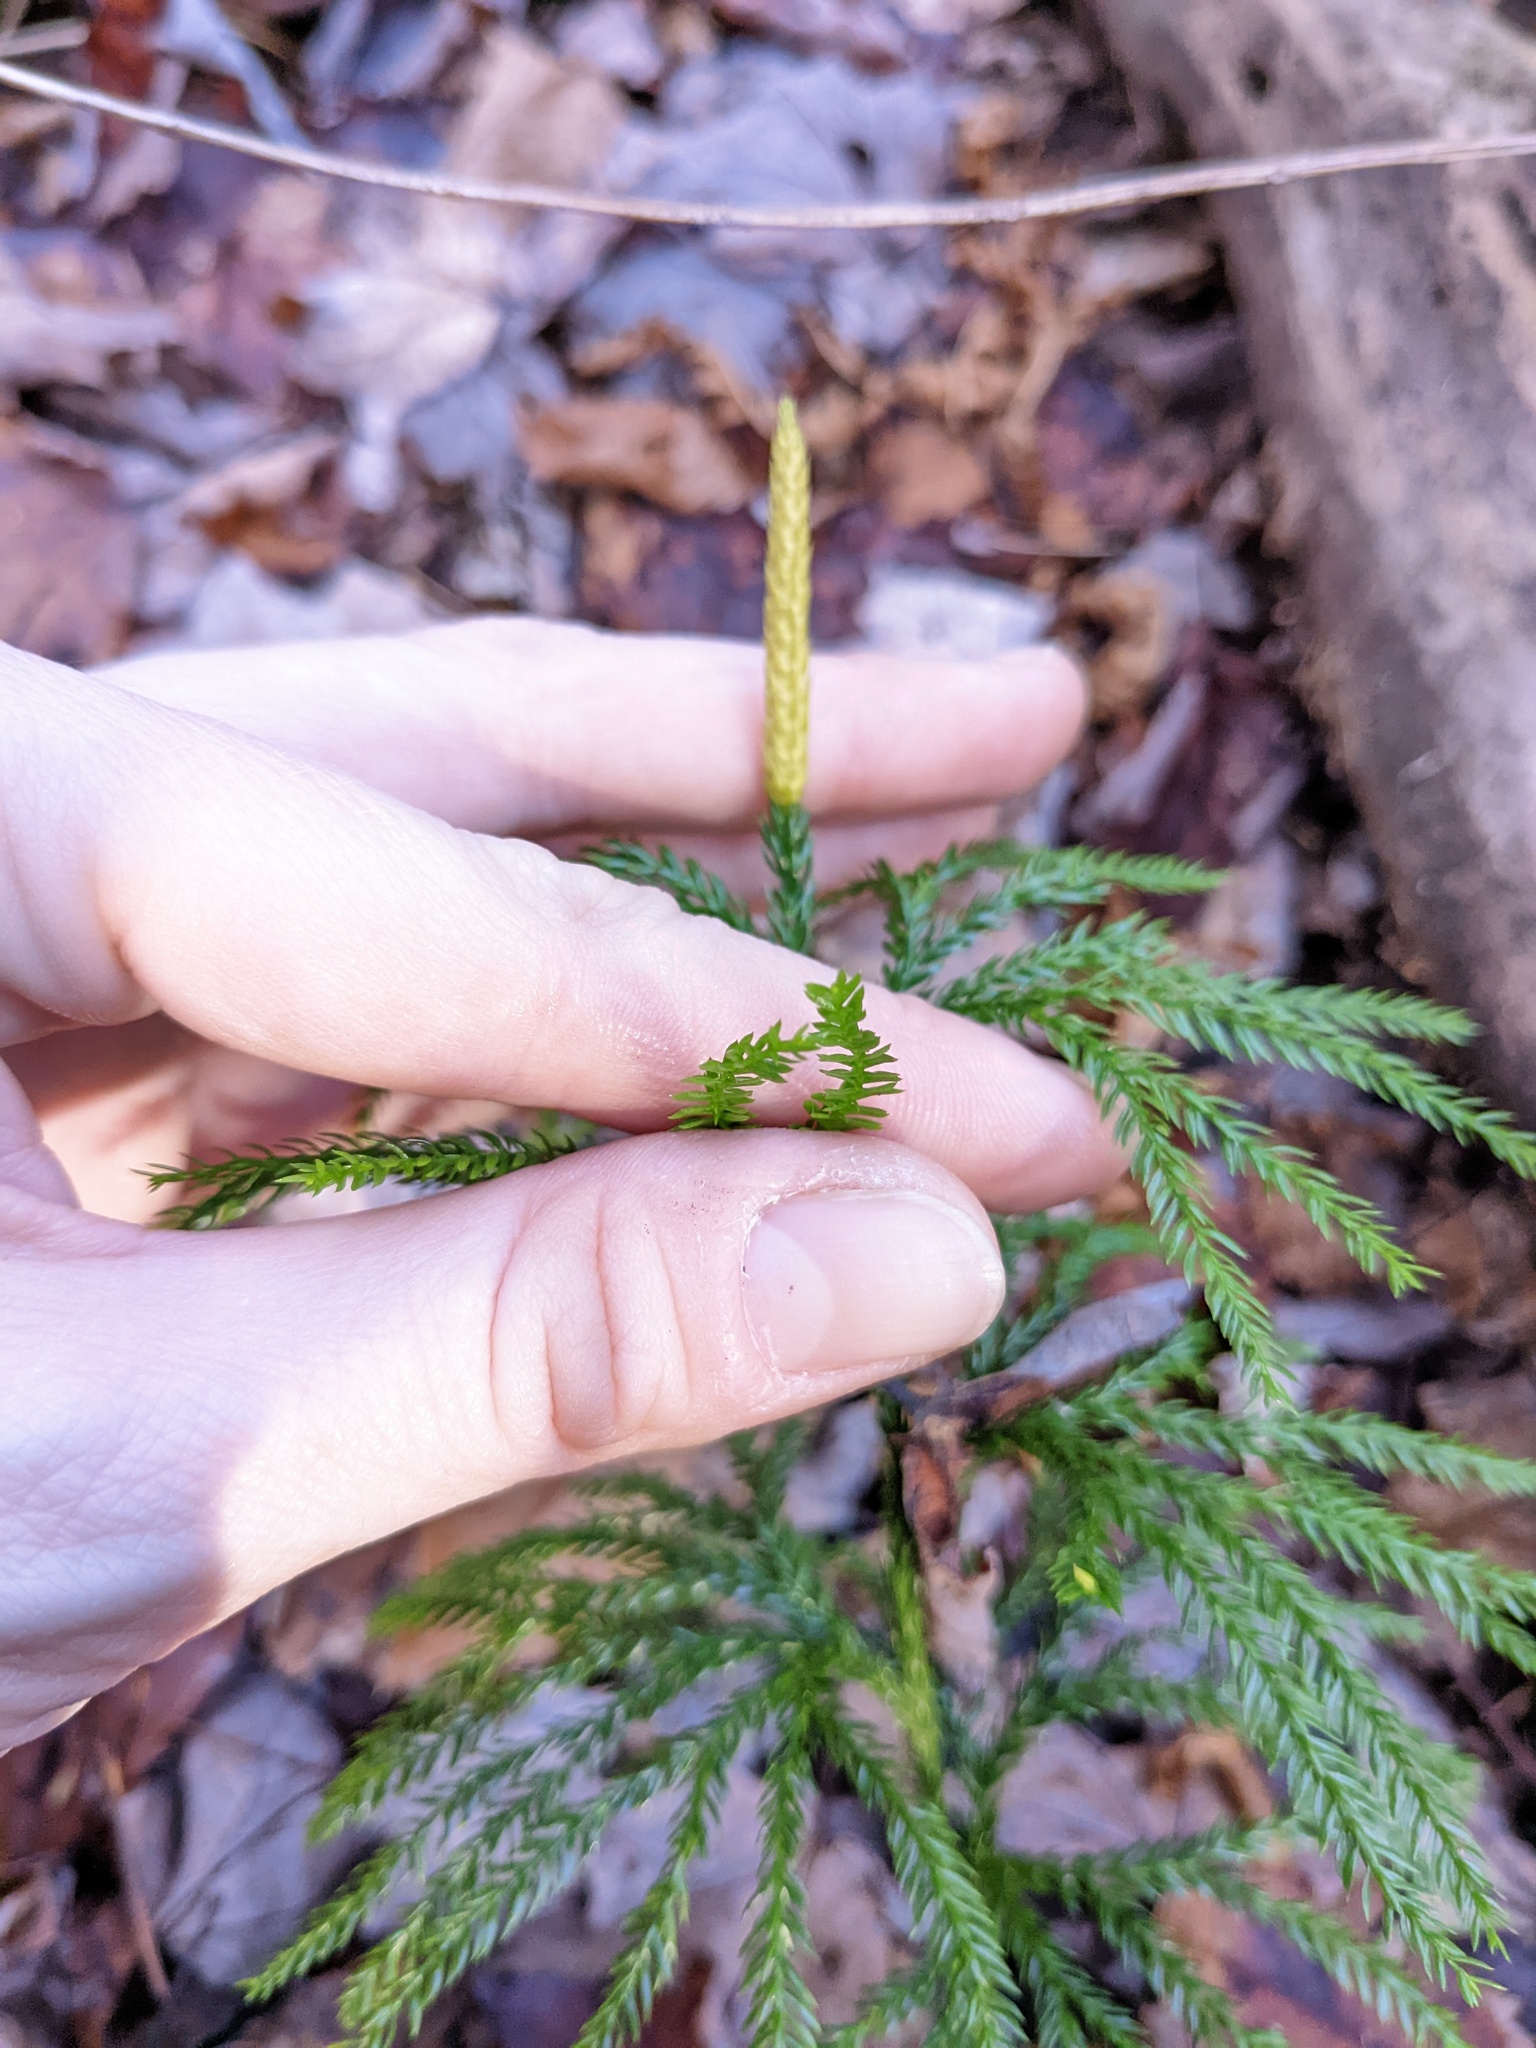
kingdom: Plantae
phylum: Tracheophyta
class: Lycopodiopsida
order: Lycopodiales
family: Lycopodiaceae
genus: Dendrolycopodium
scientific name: Dendrolycopodium obscurum
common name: Common ground-pine
